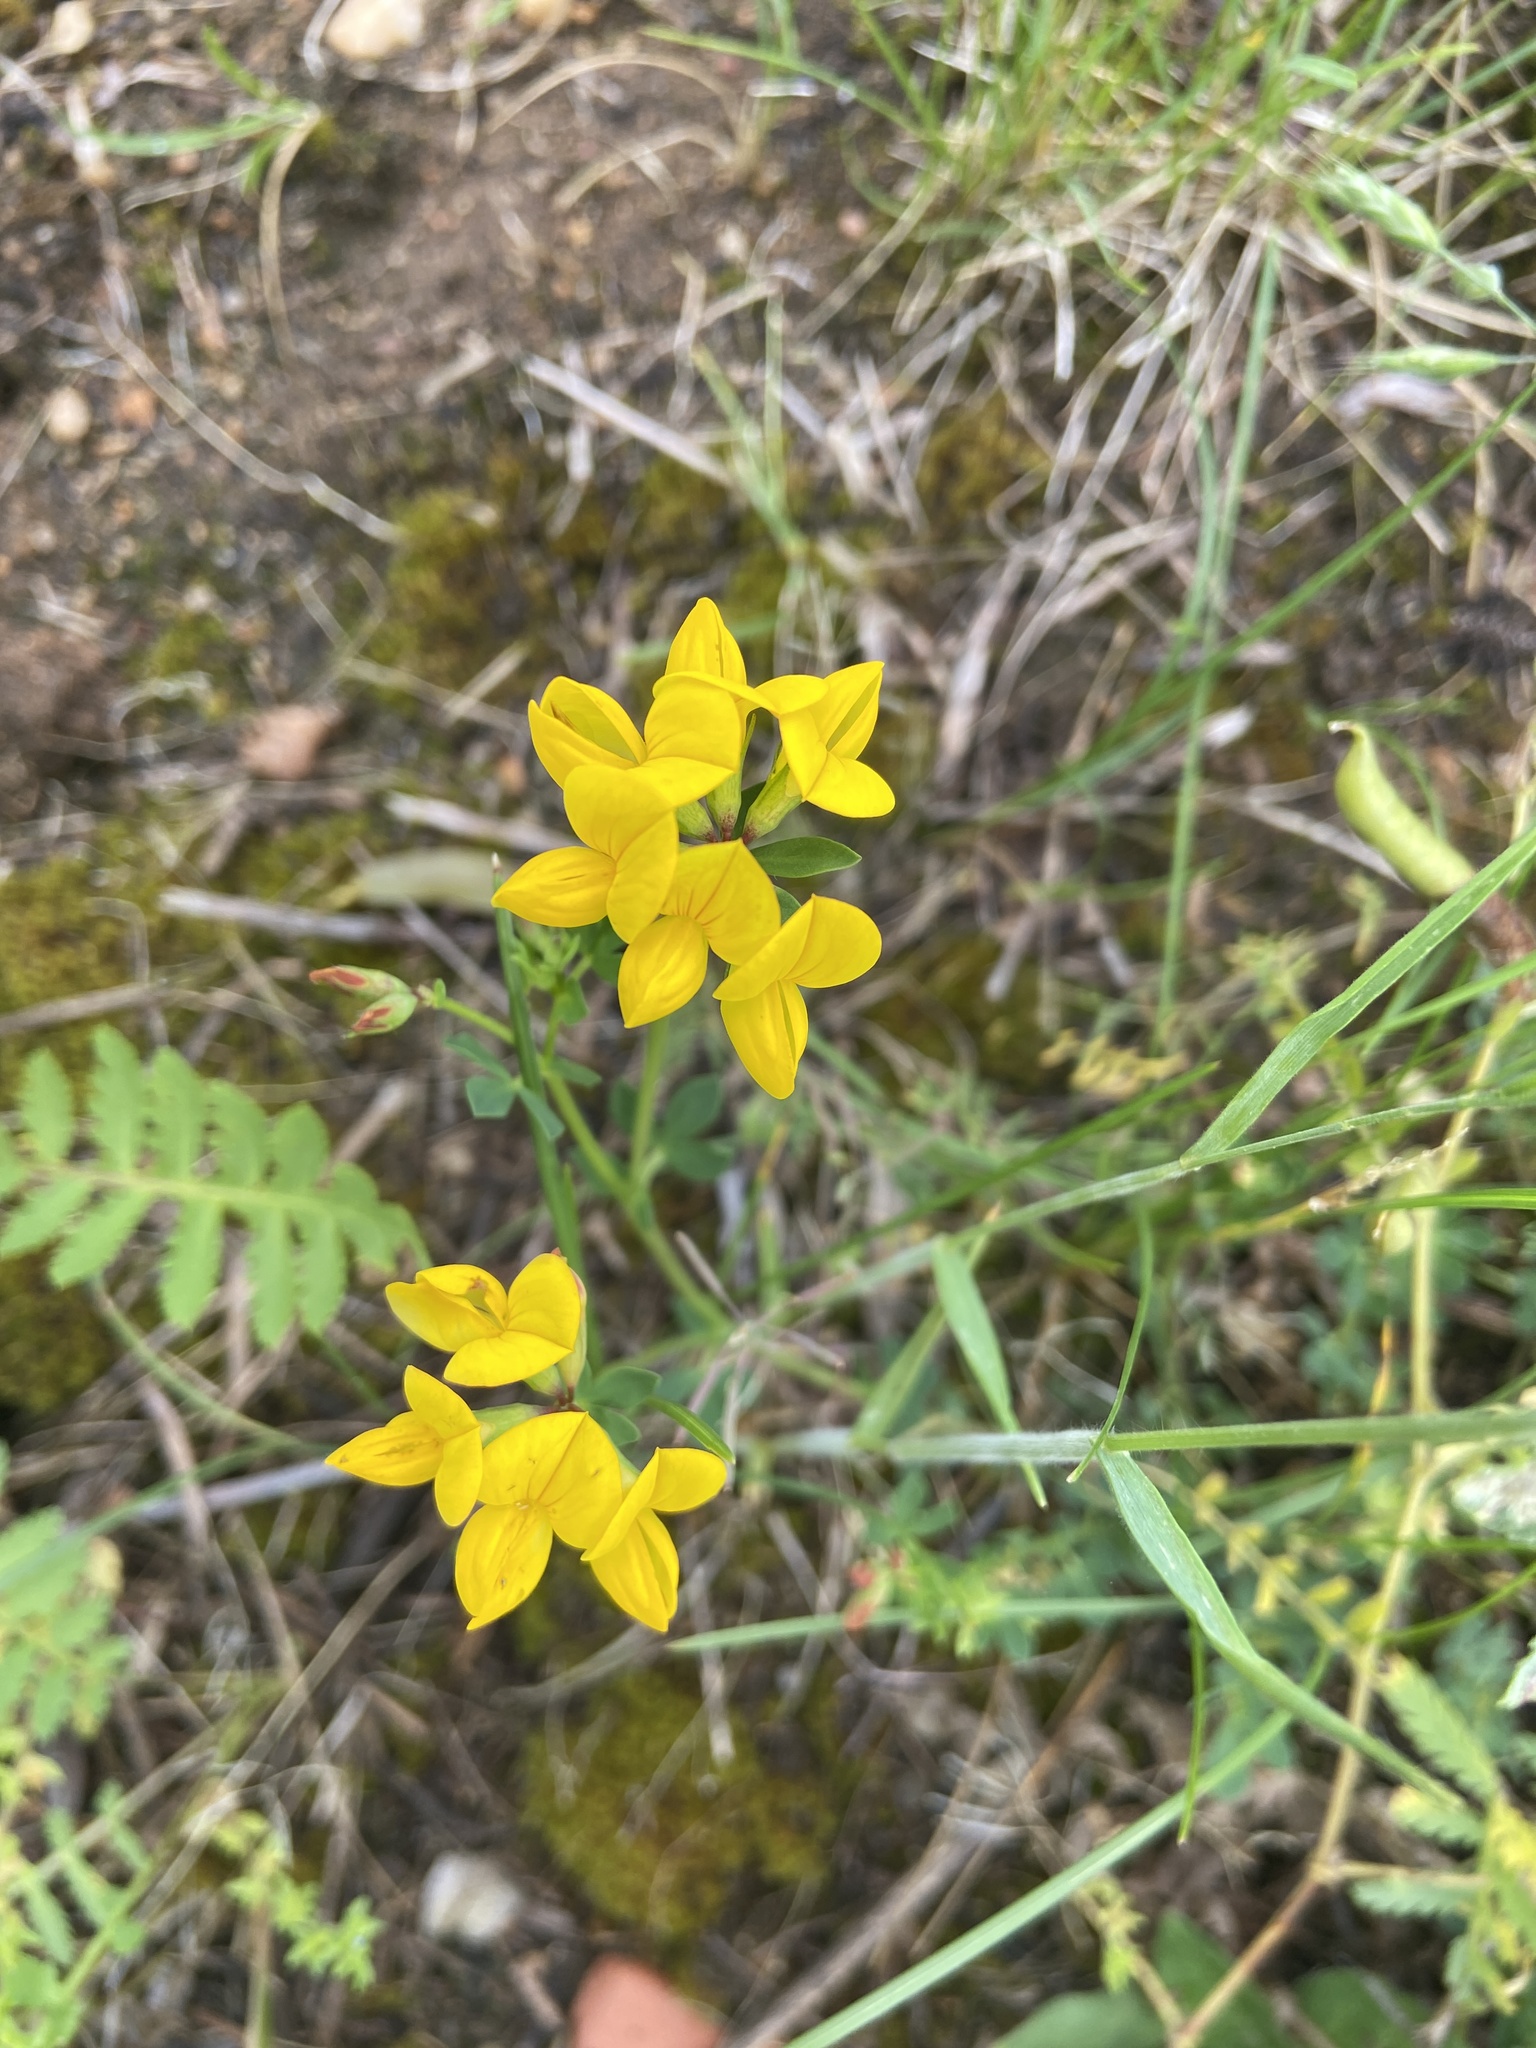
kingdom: Plantae
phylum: Tracheophyta
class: Magnoliopsida
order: Fabales
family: Fabaceae
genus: Lotus
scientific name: Lotus corniculatus
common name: Common bird's-foot-trefoil
